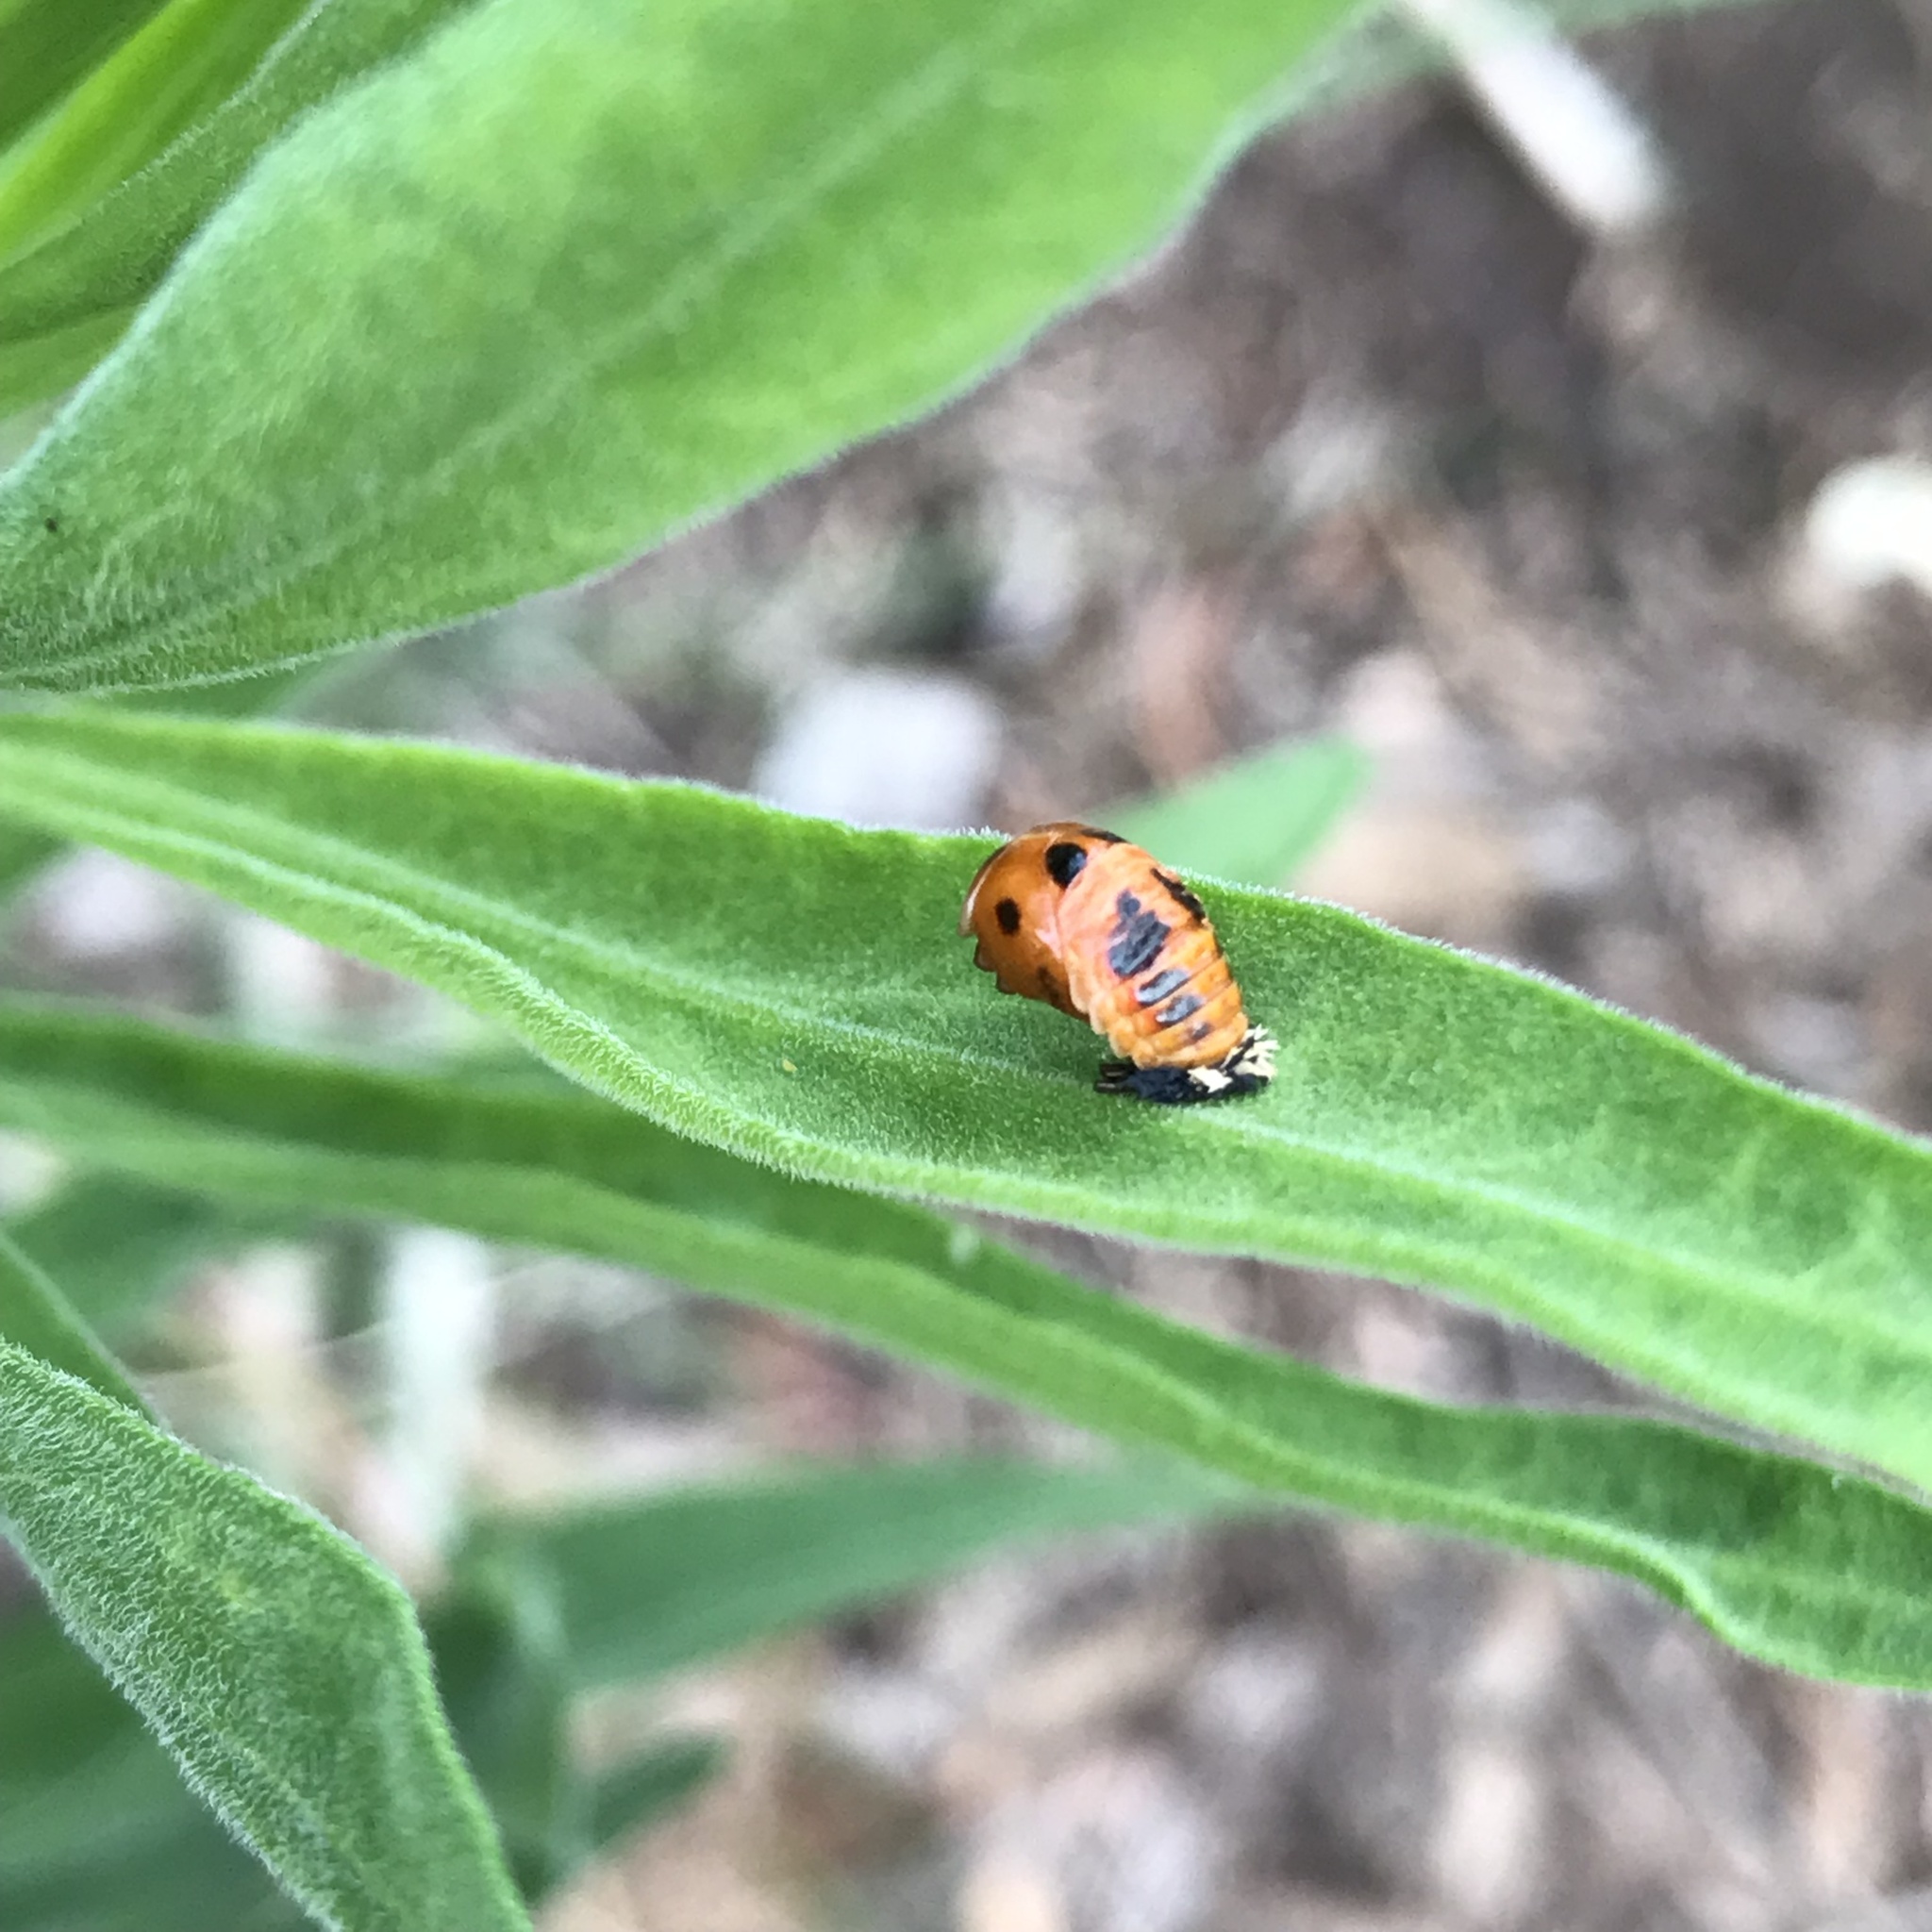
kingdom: Animalia
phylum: Arthropoda
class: Insecta
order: Coleoptera
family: Coccinellidae
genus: Harmonia
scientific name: Harmonia axyridis
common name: Harlequin ladybird
